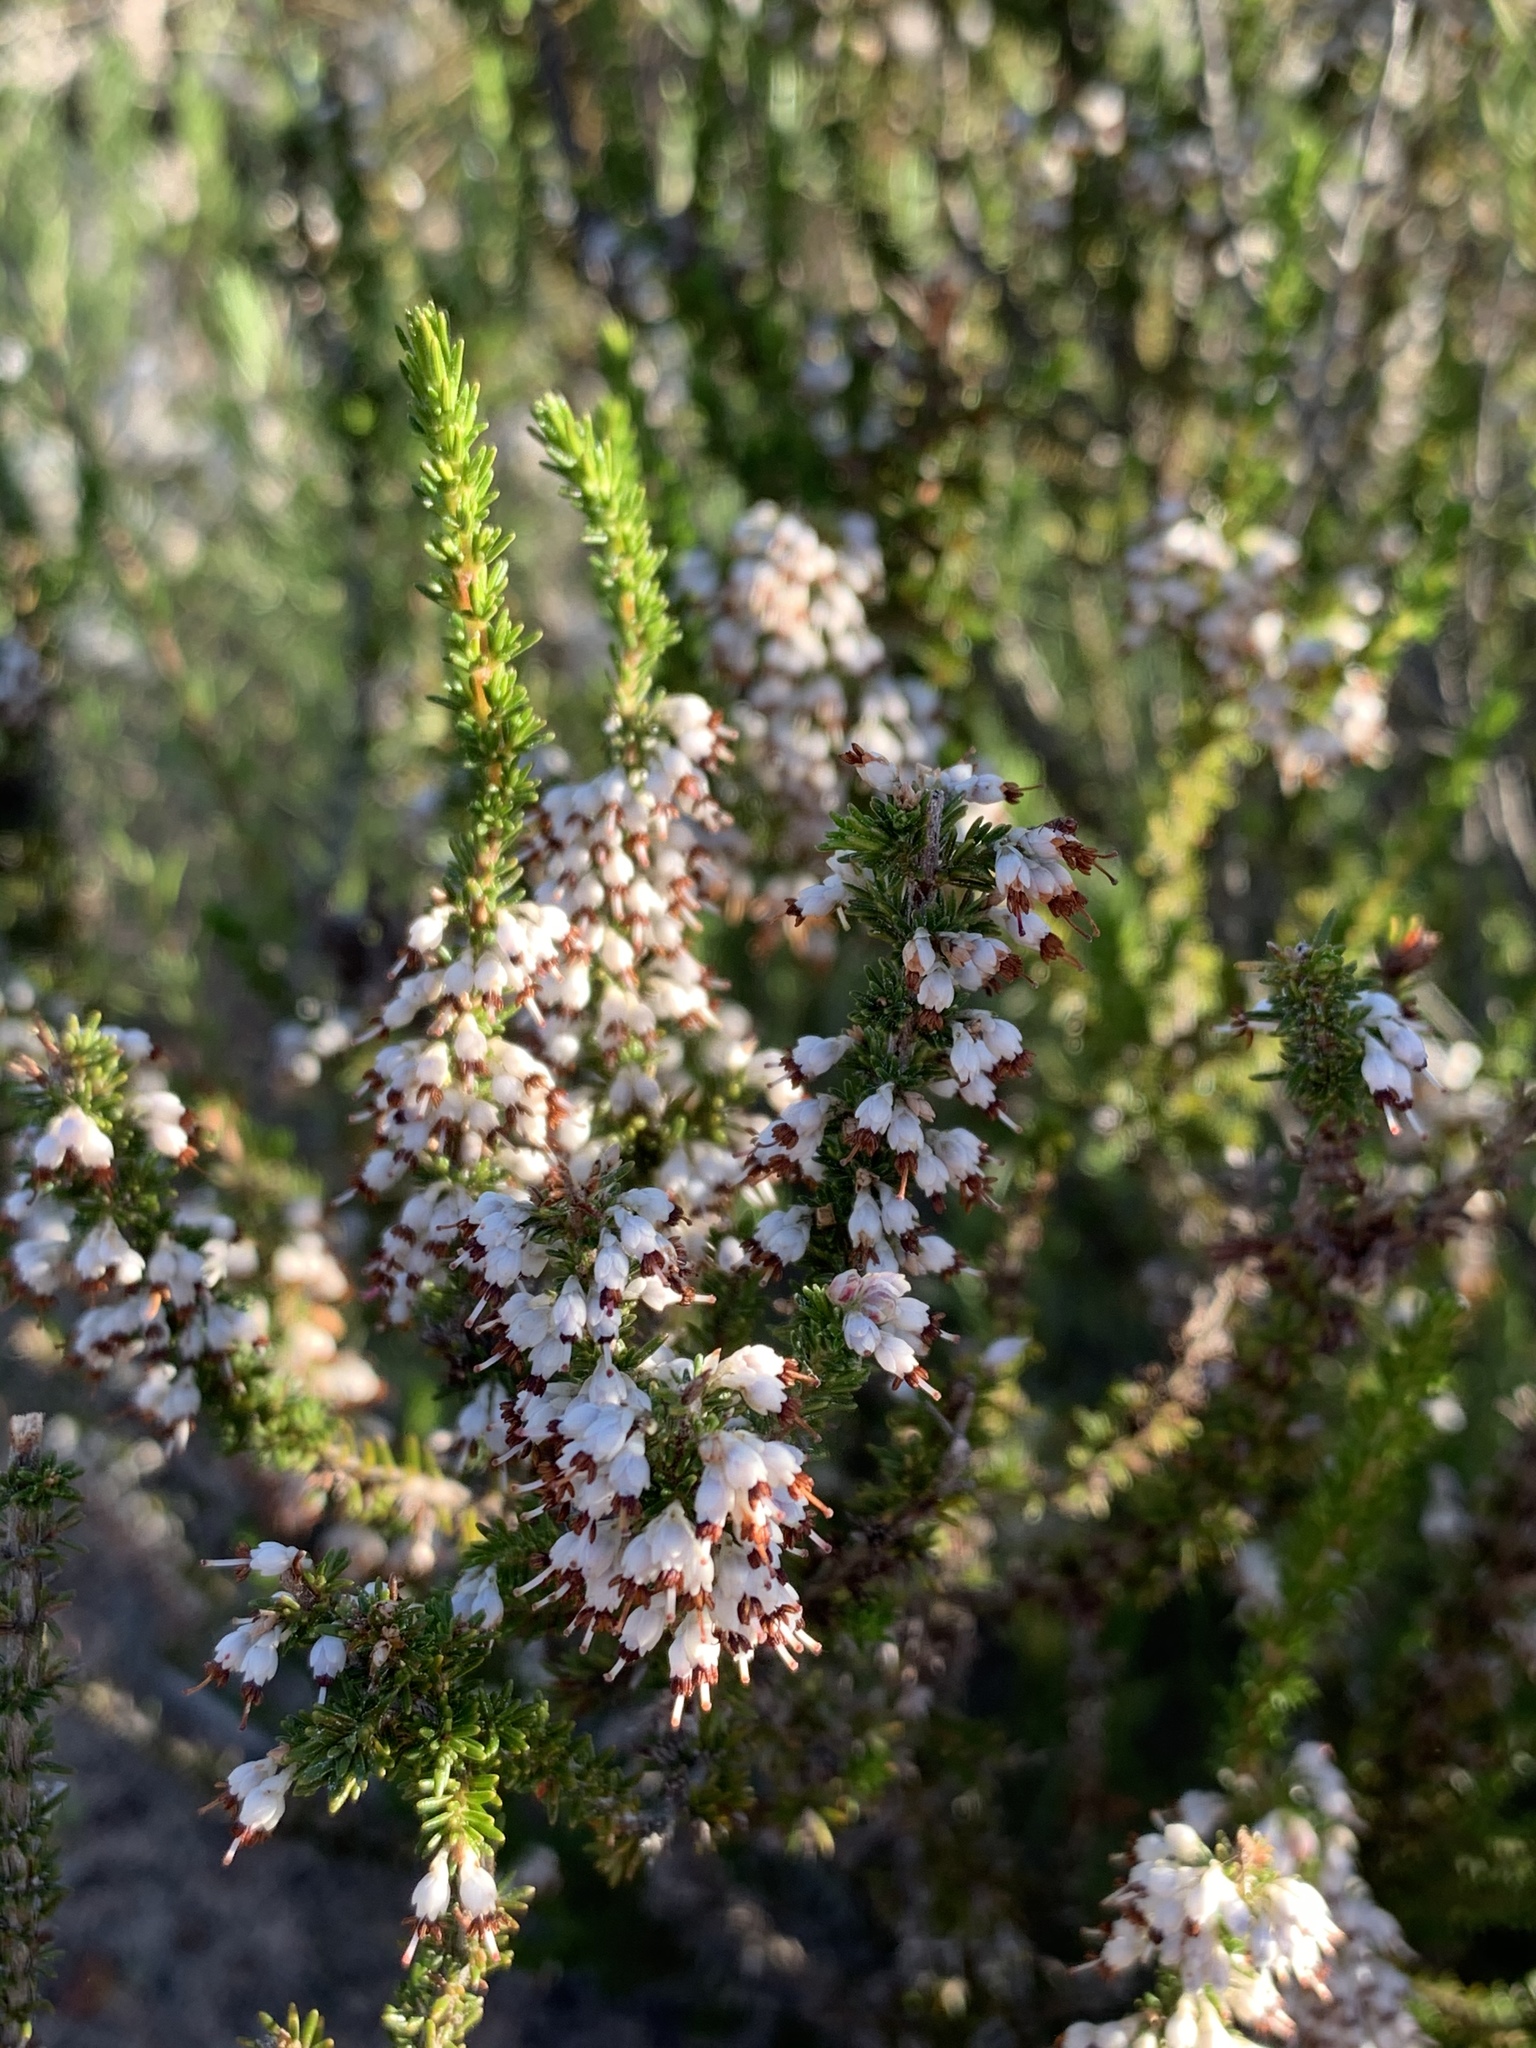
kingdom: Plantae
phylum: Tracheophyta
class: Magnoliopsida
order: Ericales
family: Ericaceae
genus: Erica
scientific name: Erica imbricata
